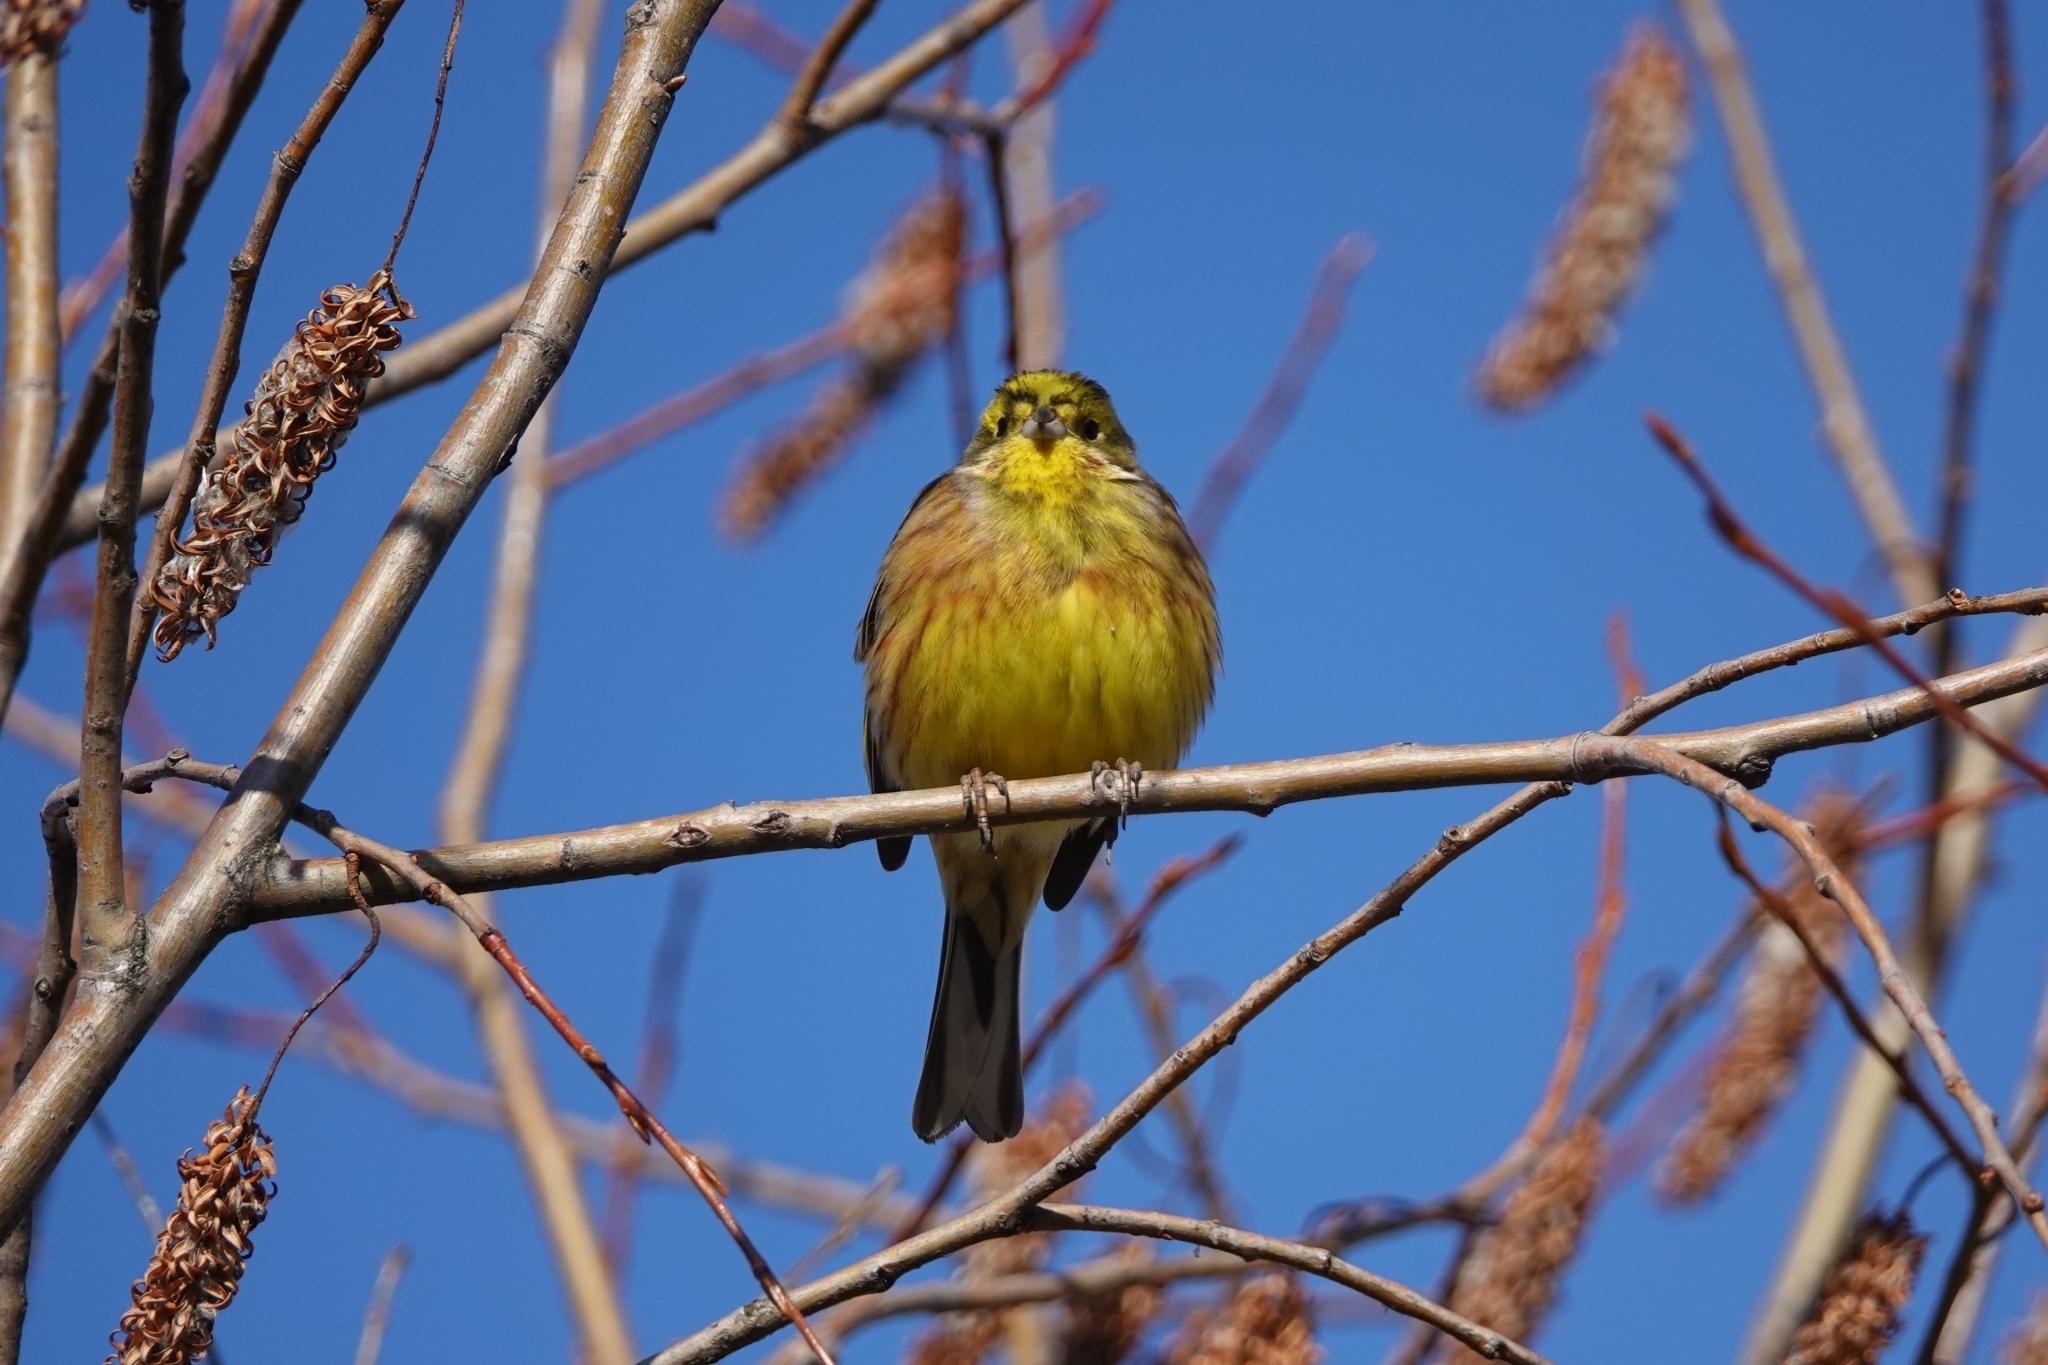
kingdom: Animalia
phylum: Chordata
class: Aves
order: Passeriformes
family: Emberizidae
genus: Emberiza
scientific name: Emberiza citrinella
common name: Yellowhammer
